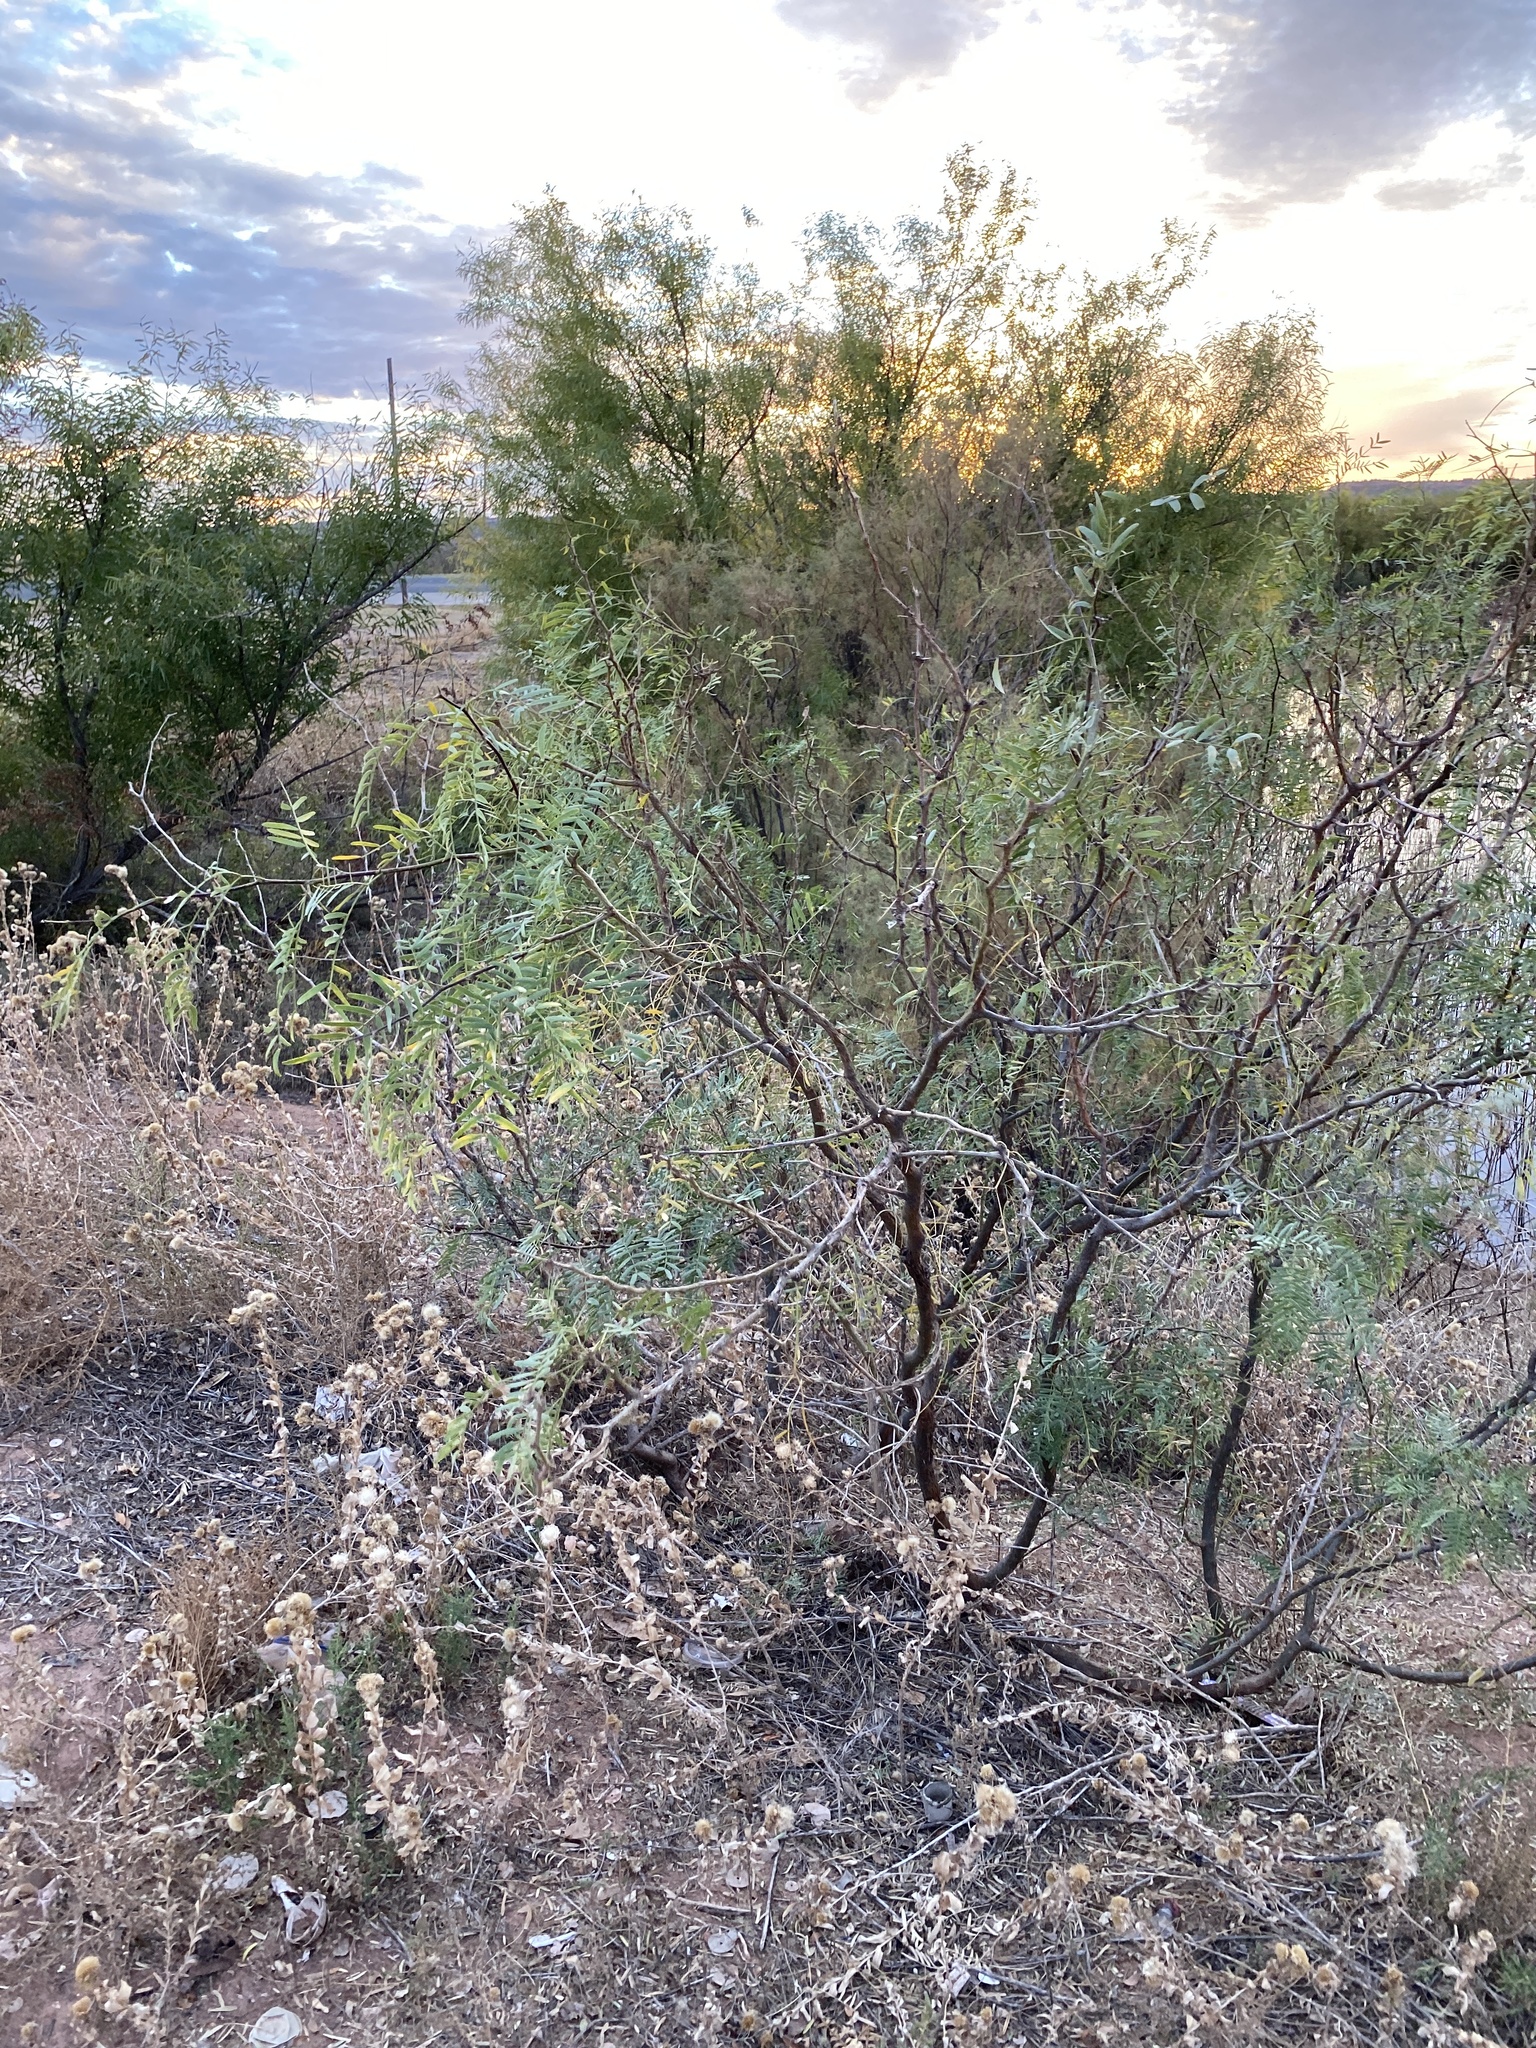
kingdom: Plantae
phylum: Tracheophyta
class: Magnoliopsida
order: Fabales
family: Fabaceae
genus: Prosopis
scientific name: Prosopis glandulosa
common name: Honey mesquite
